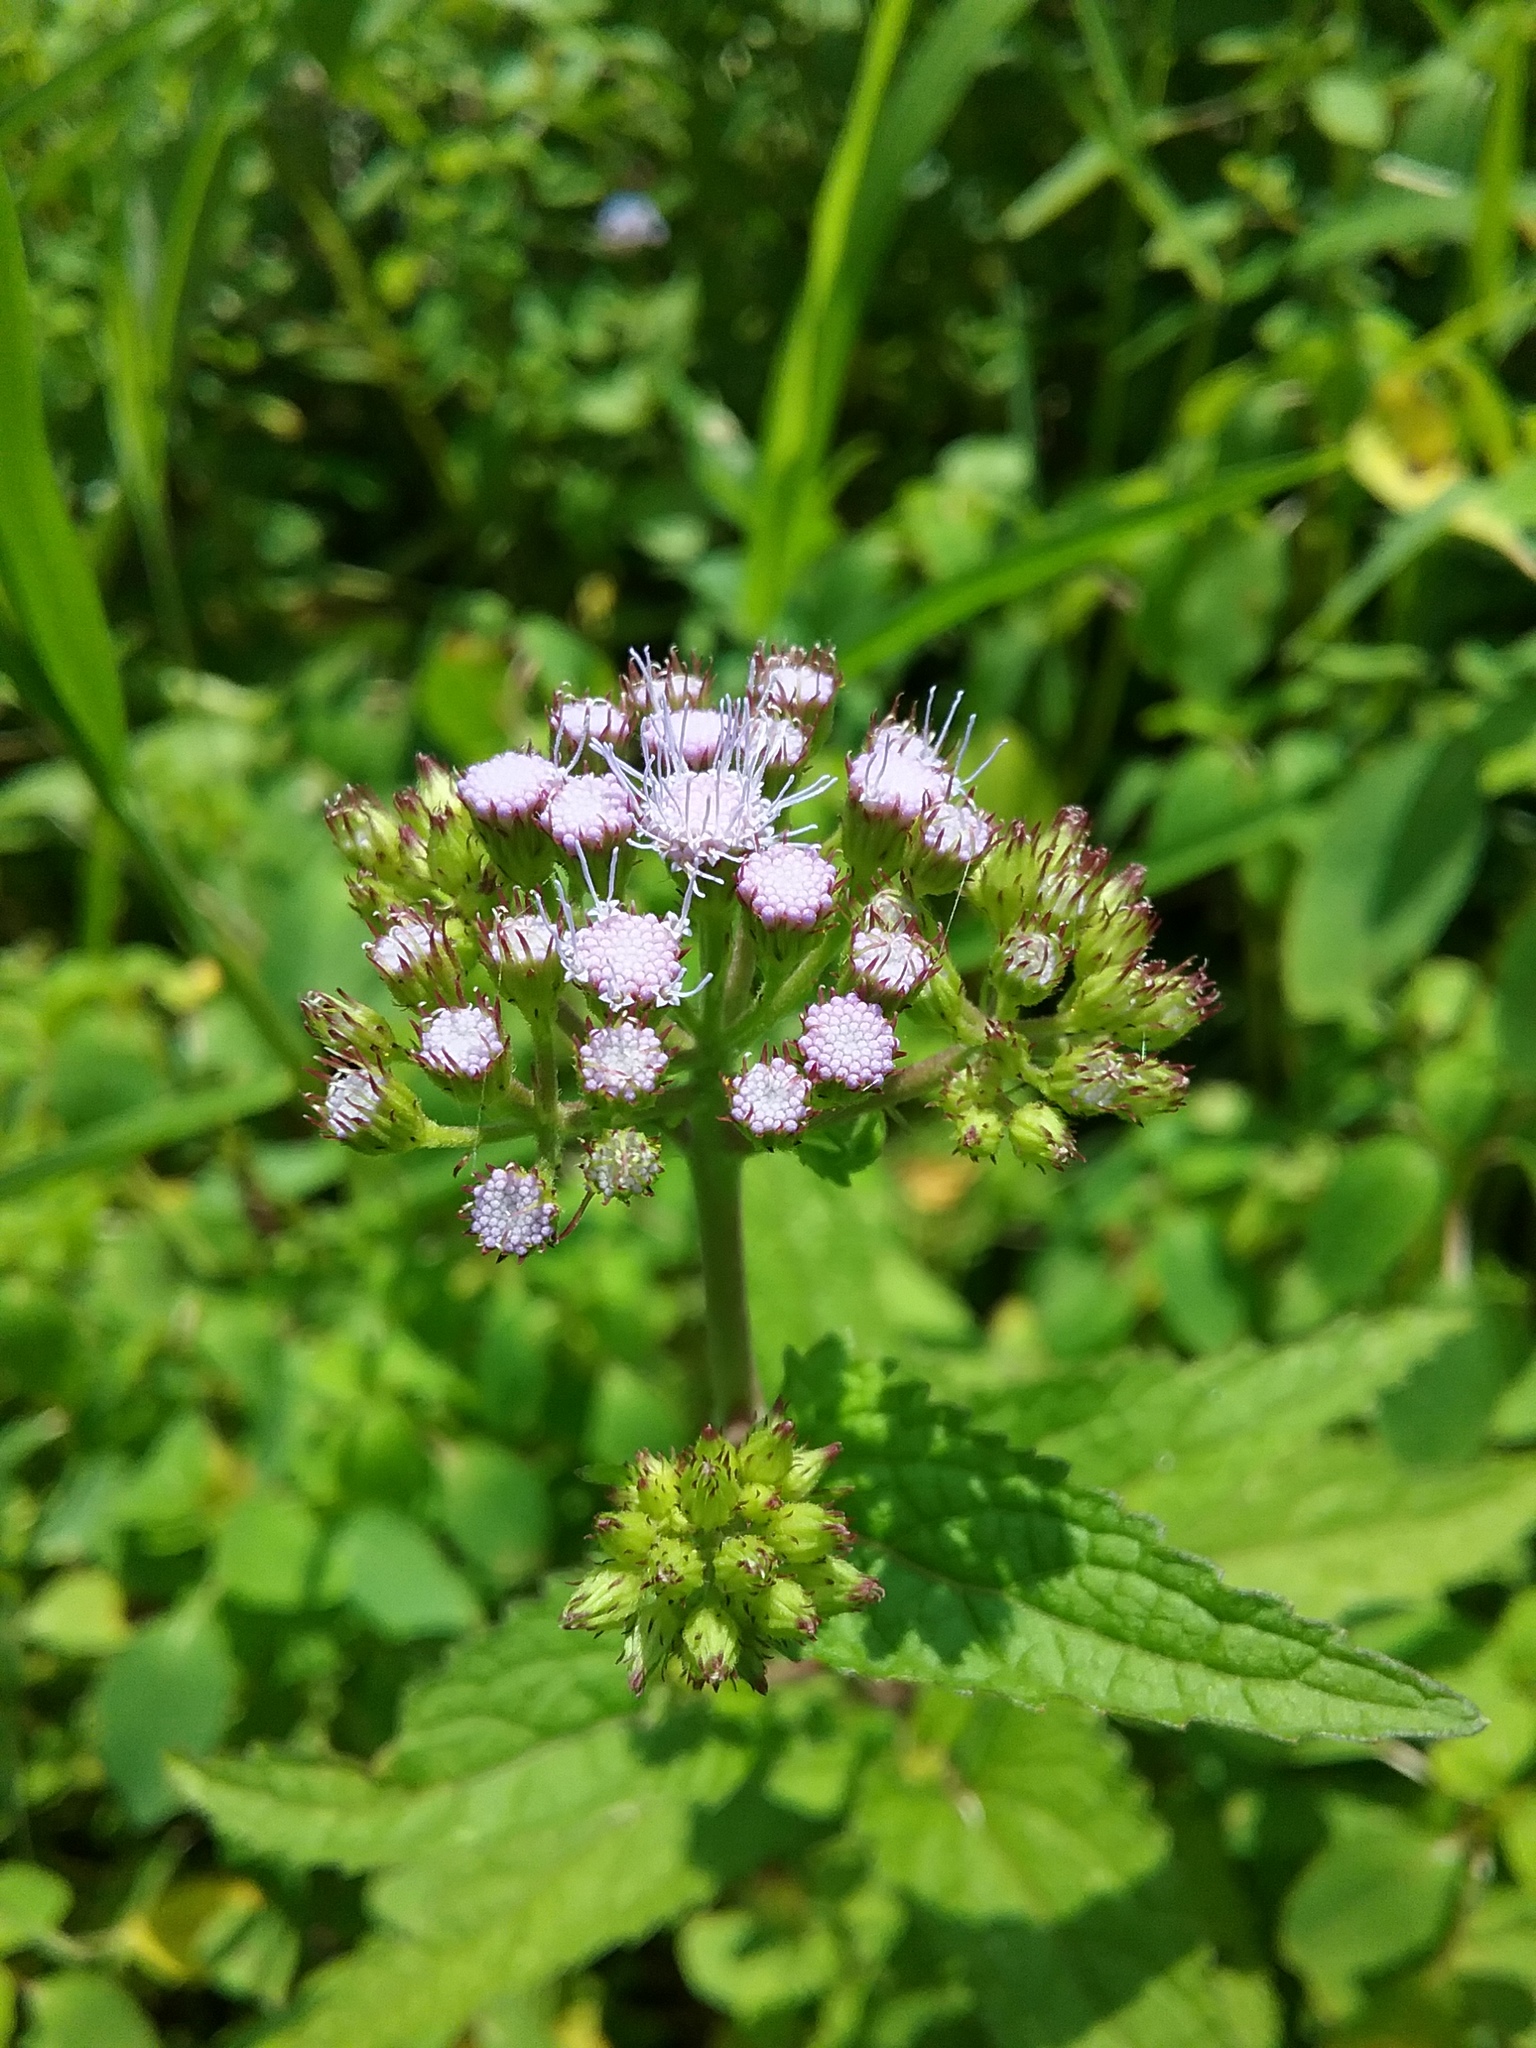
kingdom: Plantae
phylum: Tracheophyta
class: Magnoliopsida
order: Asterales
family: Asteraceae
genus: Conoclinium
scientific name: Conoclinium coelestinum
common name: Blue mistflower
